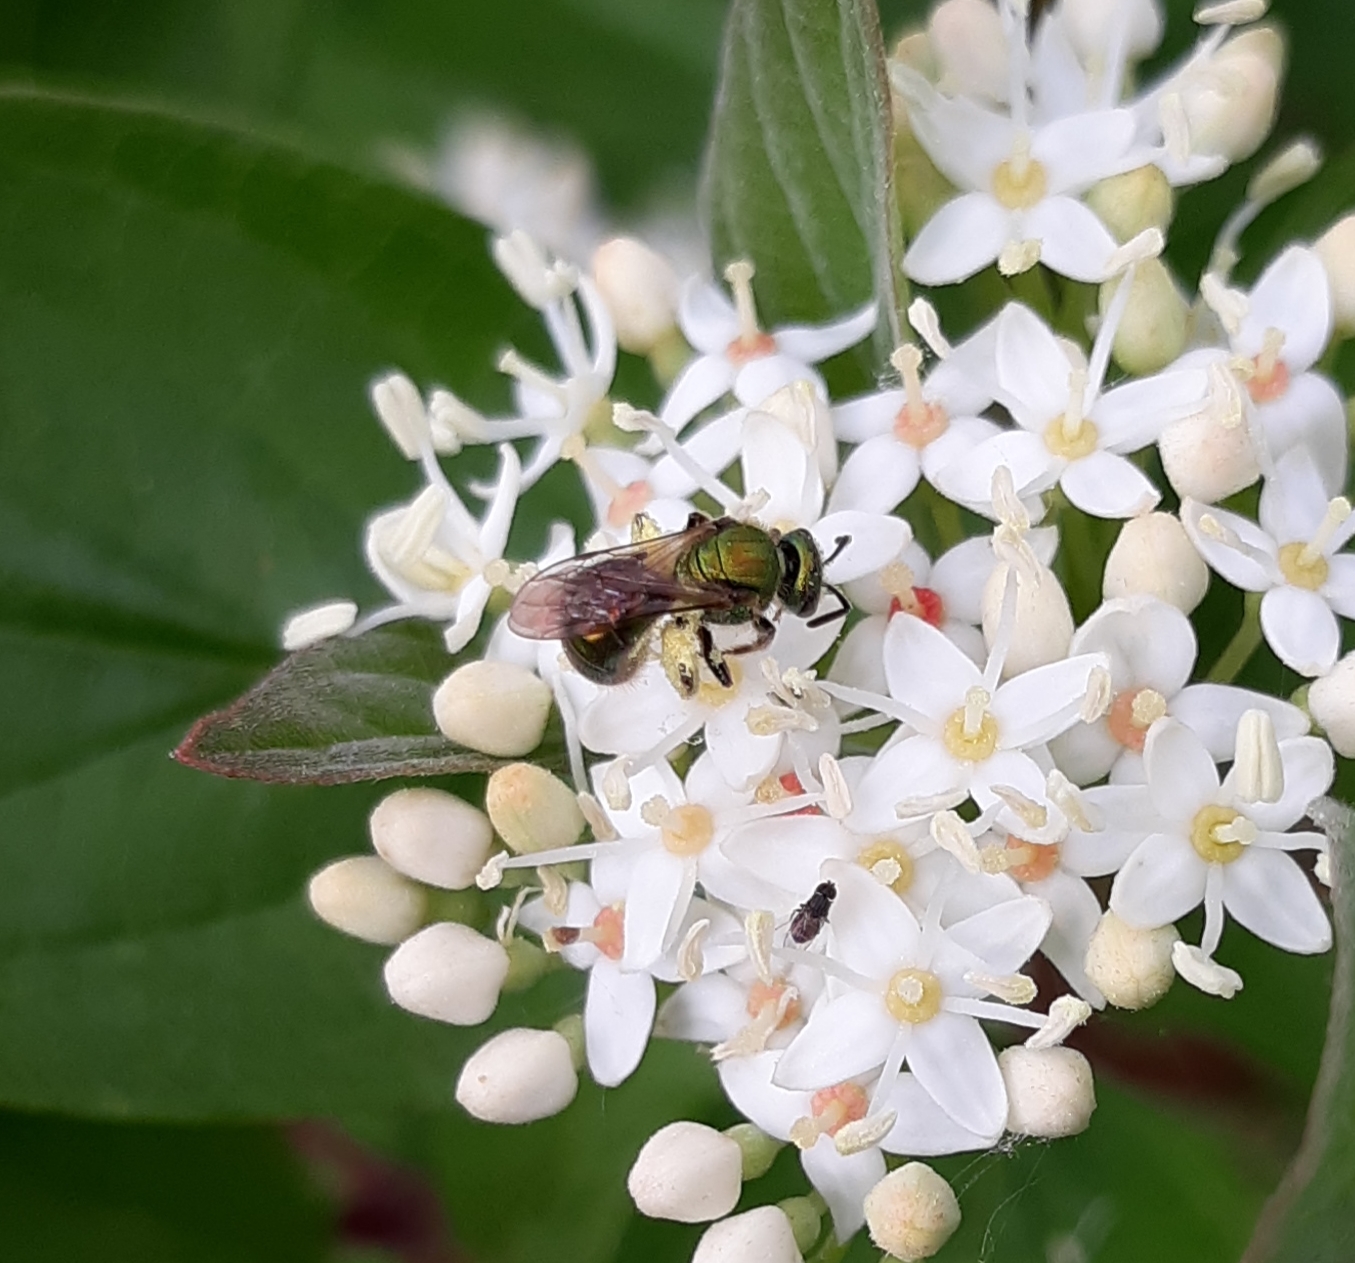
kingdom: Animalia
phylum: Arthropoda
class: Insecta
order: Hymenoptera
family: Halictidae
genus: Augochlora
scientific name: Augochlora pura
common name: Pure green sweat bee
